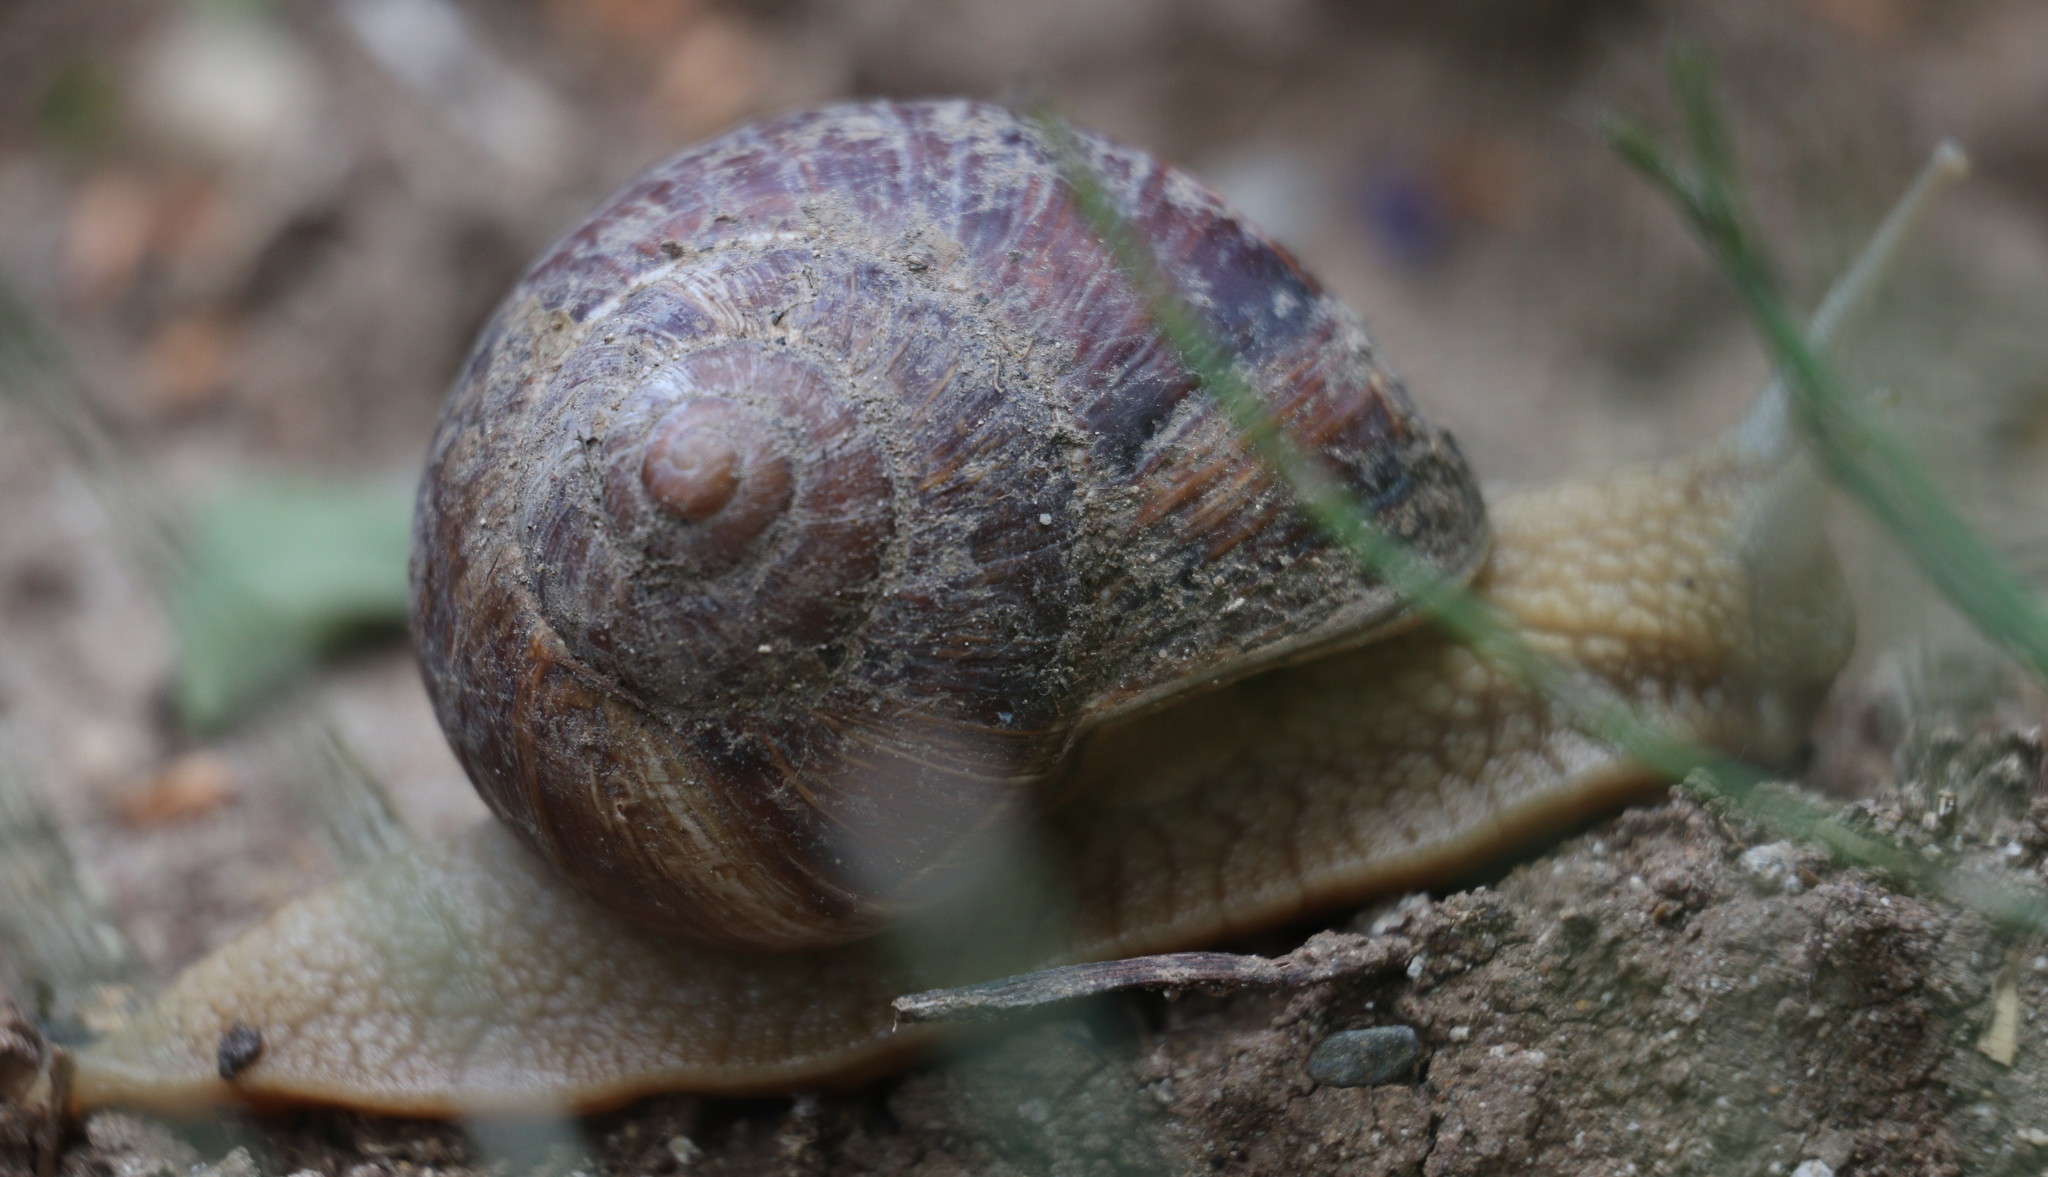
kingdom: Animalia
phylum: Mollusca
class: Gastropoda
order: Stylommatophora
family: Helicidae
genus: Helix
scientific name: Helix lucorum
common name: Turkish snail
